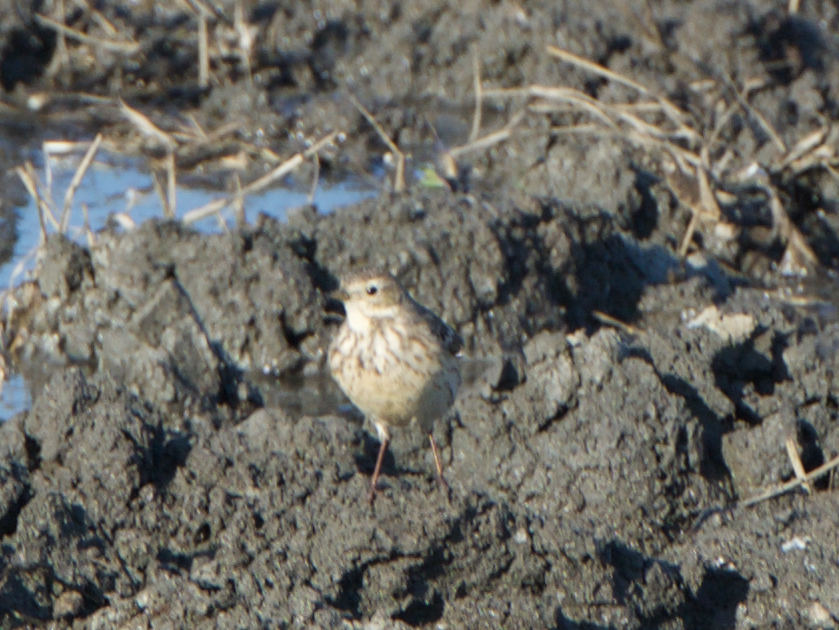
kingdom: Animalia
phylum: Chordata
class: Aves
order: Passeriformes
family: Motacillidae
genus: Anthus
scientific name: Anthus rubescens
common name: Buff-bellied pipit
